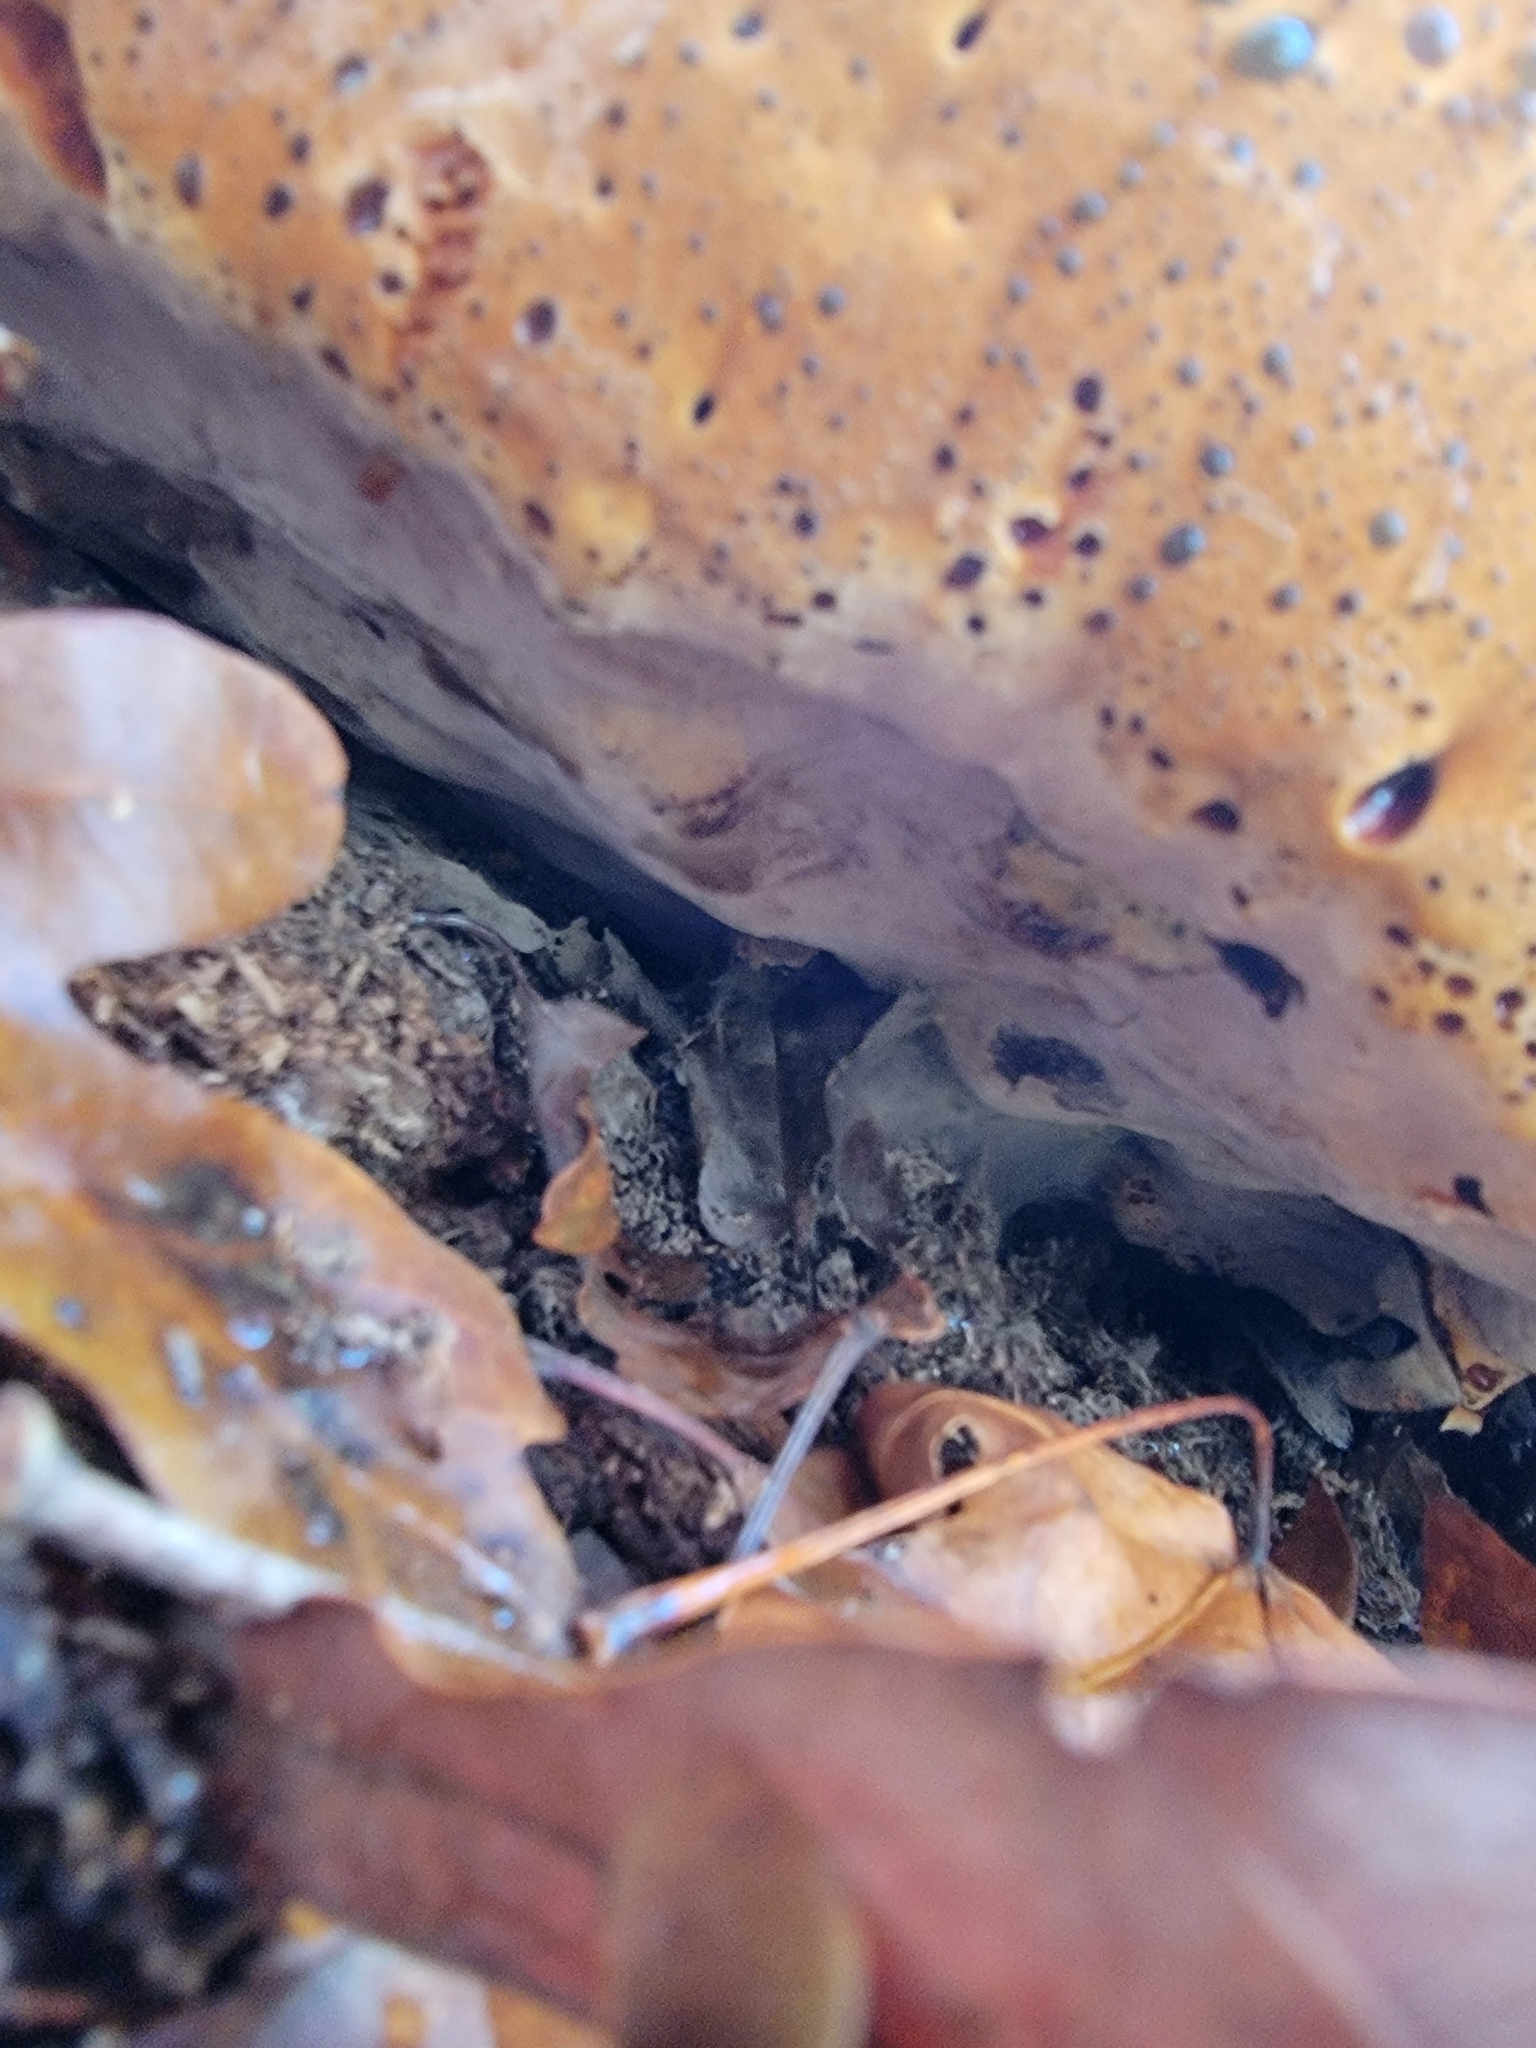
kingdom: Fungi
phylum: Basidiomycota
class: Agaricomycetes
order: Hymenochaetales
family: Hymenochaetaceae
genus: Pseudoinonotus
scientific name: Pseudoinonotus dryadeus
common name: Oak bracket
